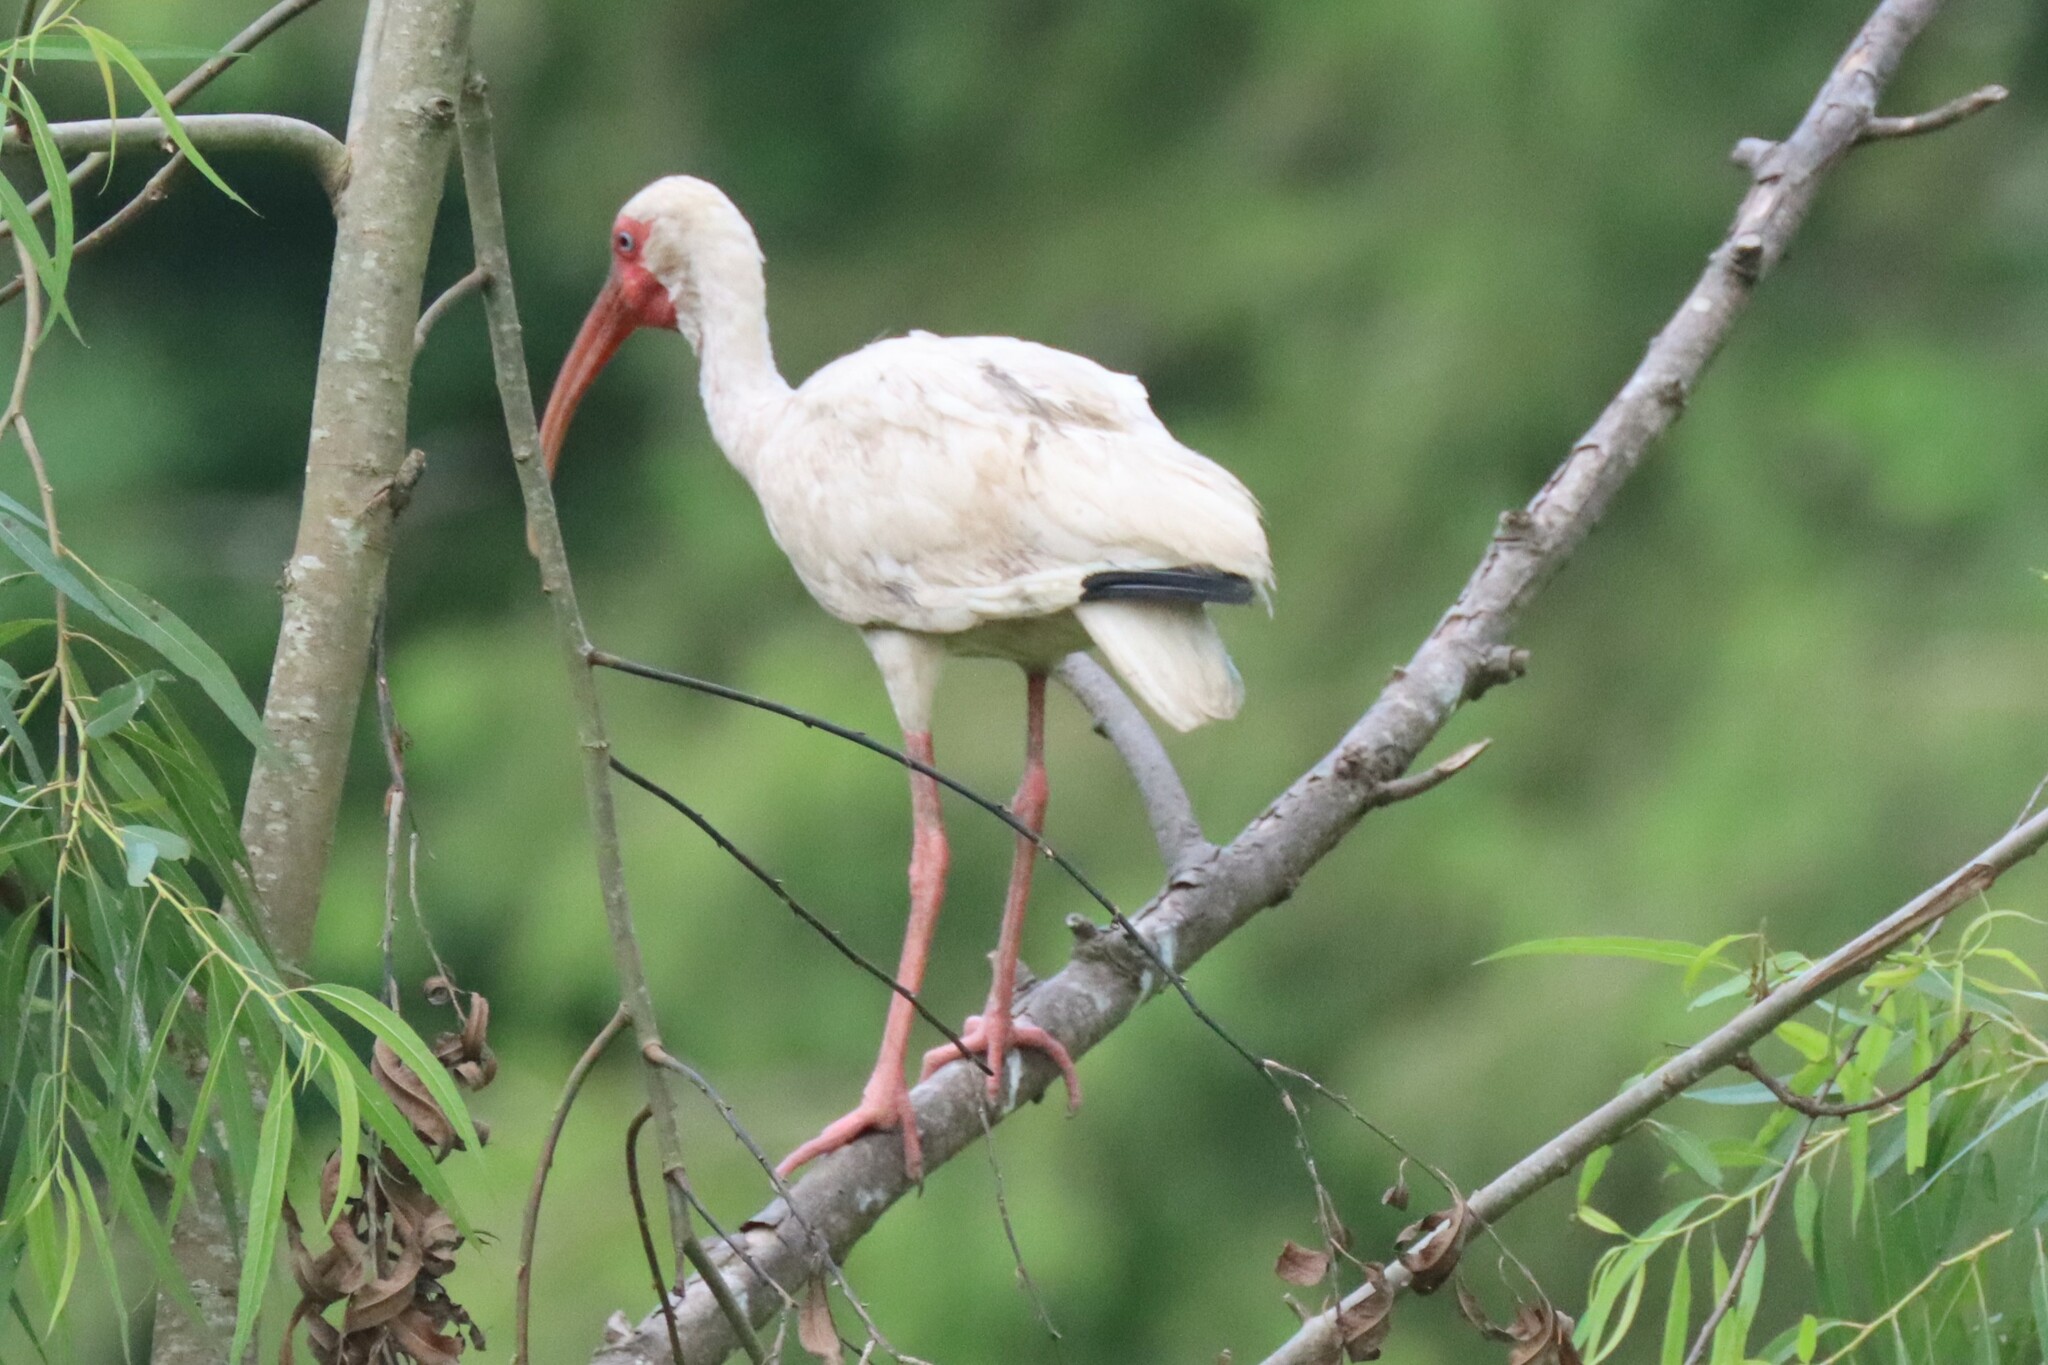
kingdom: Animalia
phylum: Chordata
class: Aves
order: Pelecaniformes
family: Threskiornithidae
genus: Eudocimus
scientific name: Eudocimus albus
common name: White ibis
